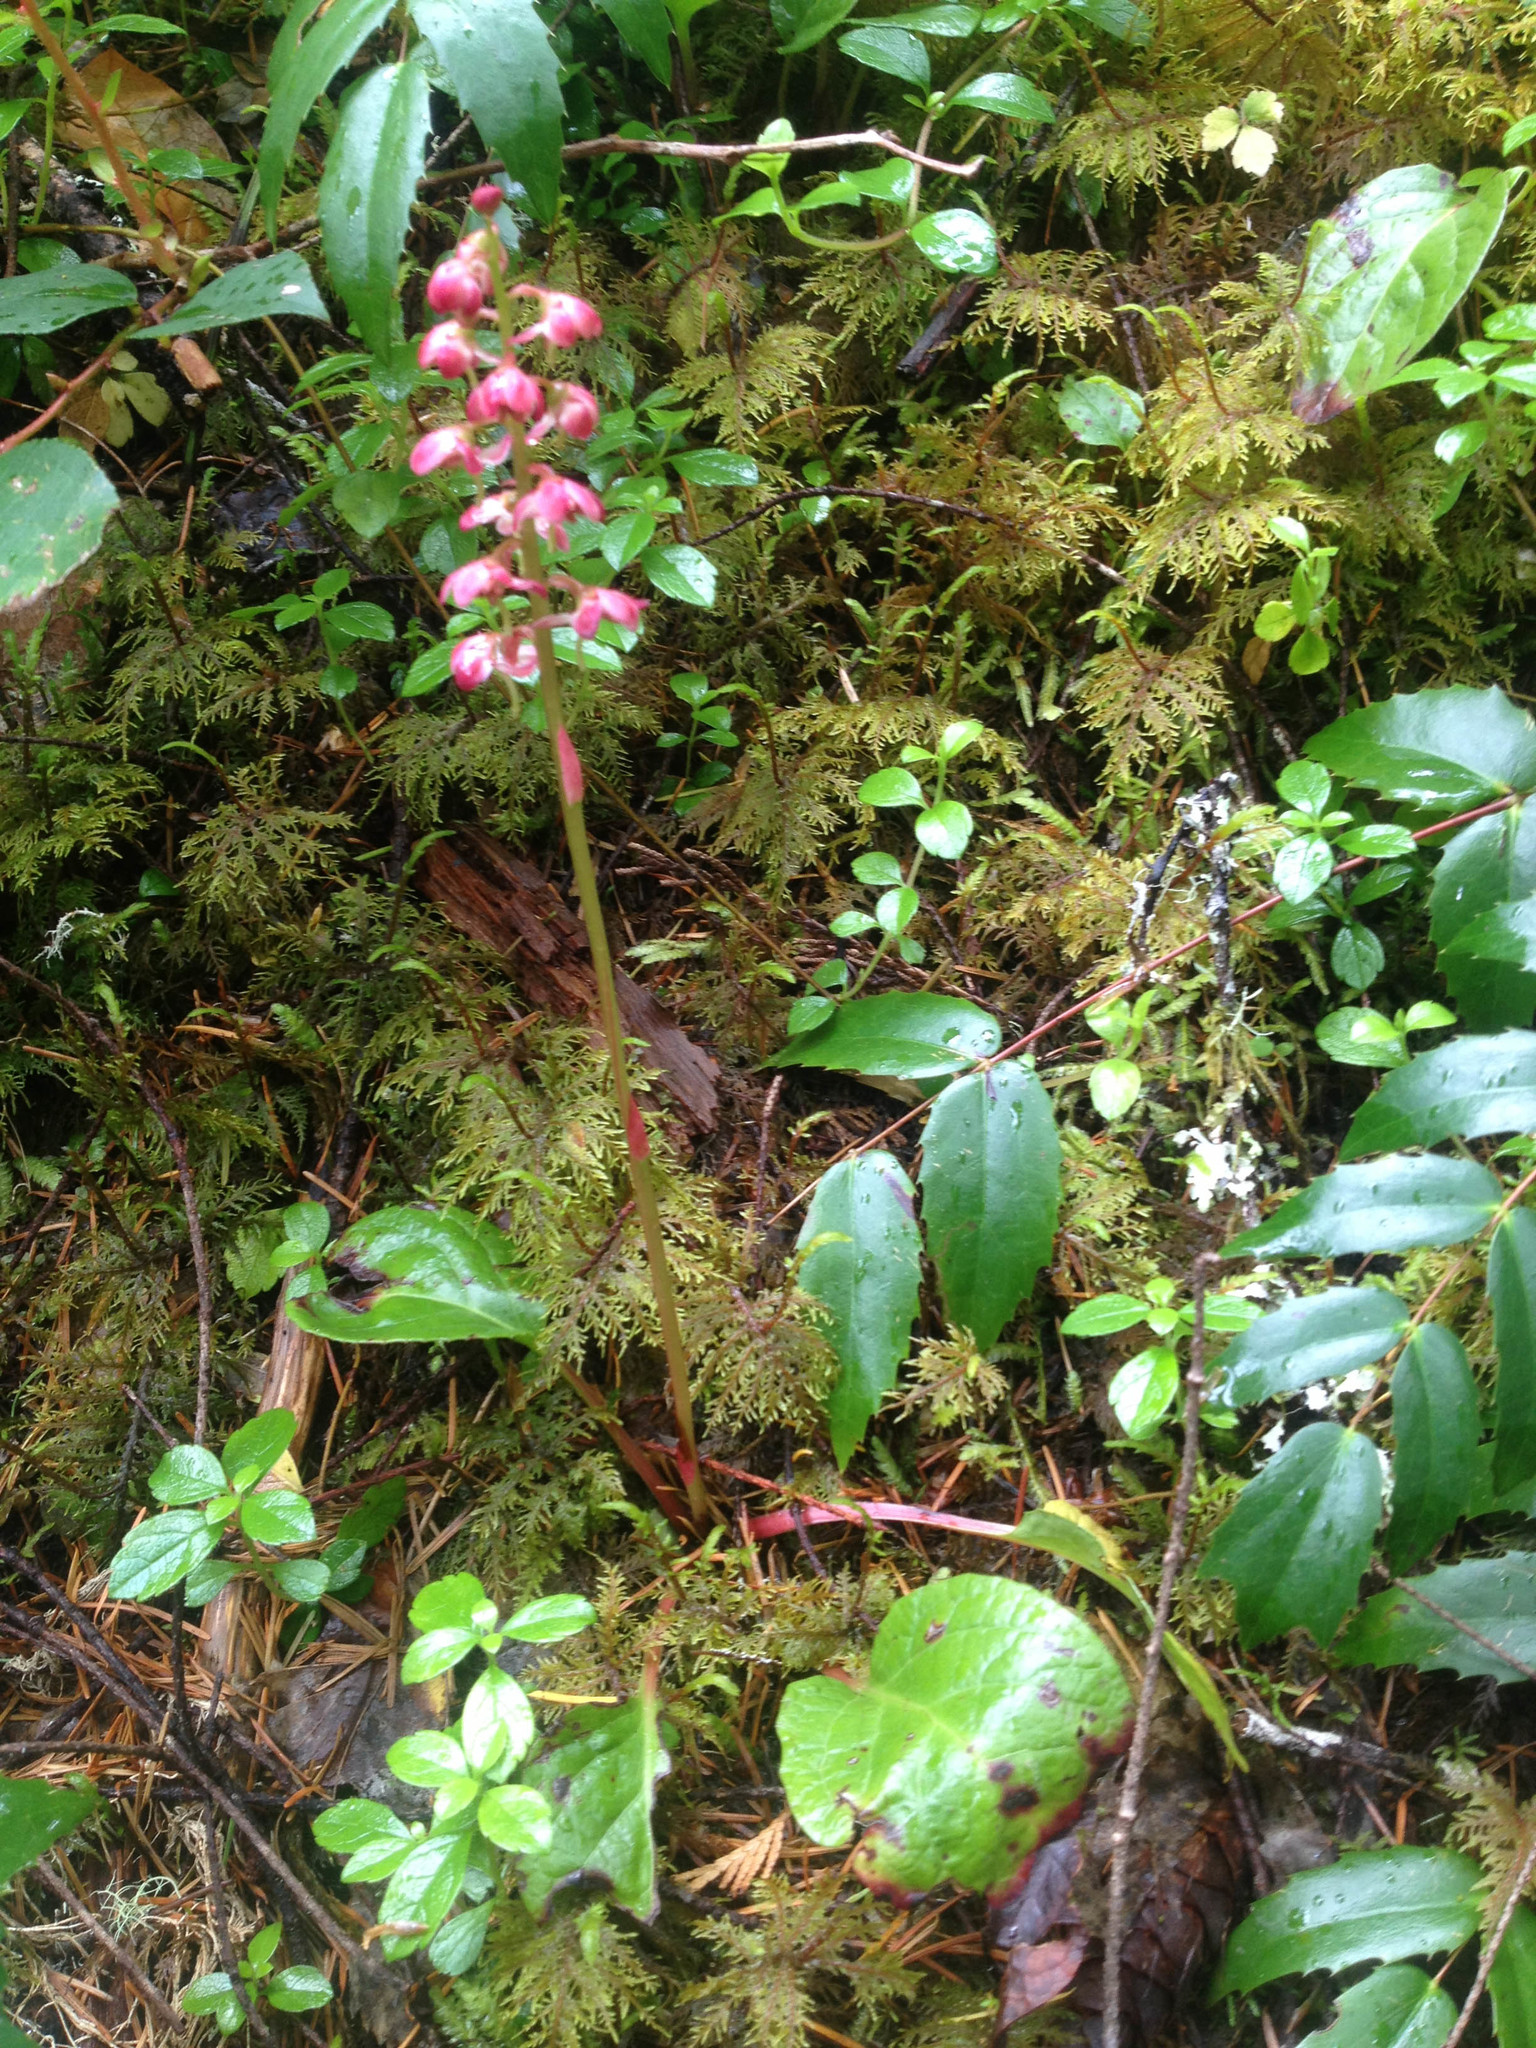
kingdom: Plantae
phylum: Tracheophyta
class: Magnoliopsida
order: Ericales
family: Ericaceae
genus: Pyrola
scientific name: Pyrola asarifolia
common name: Bog wintergreen
